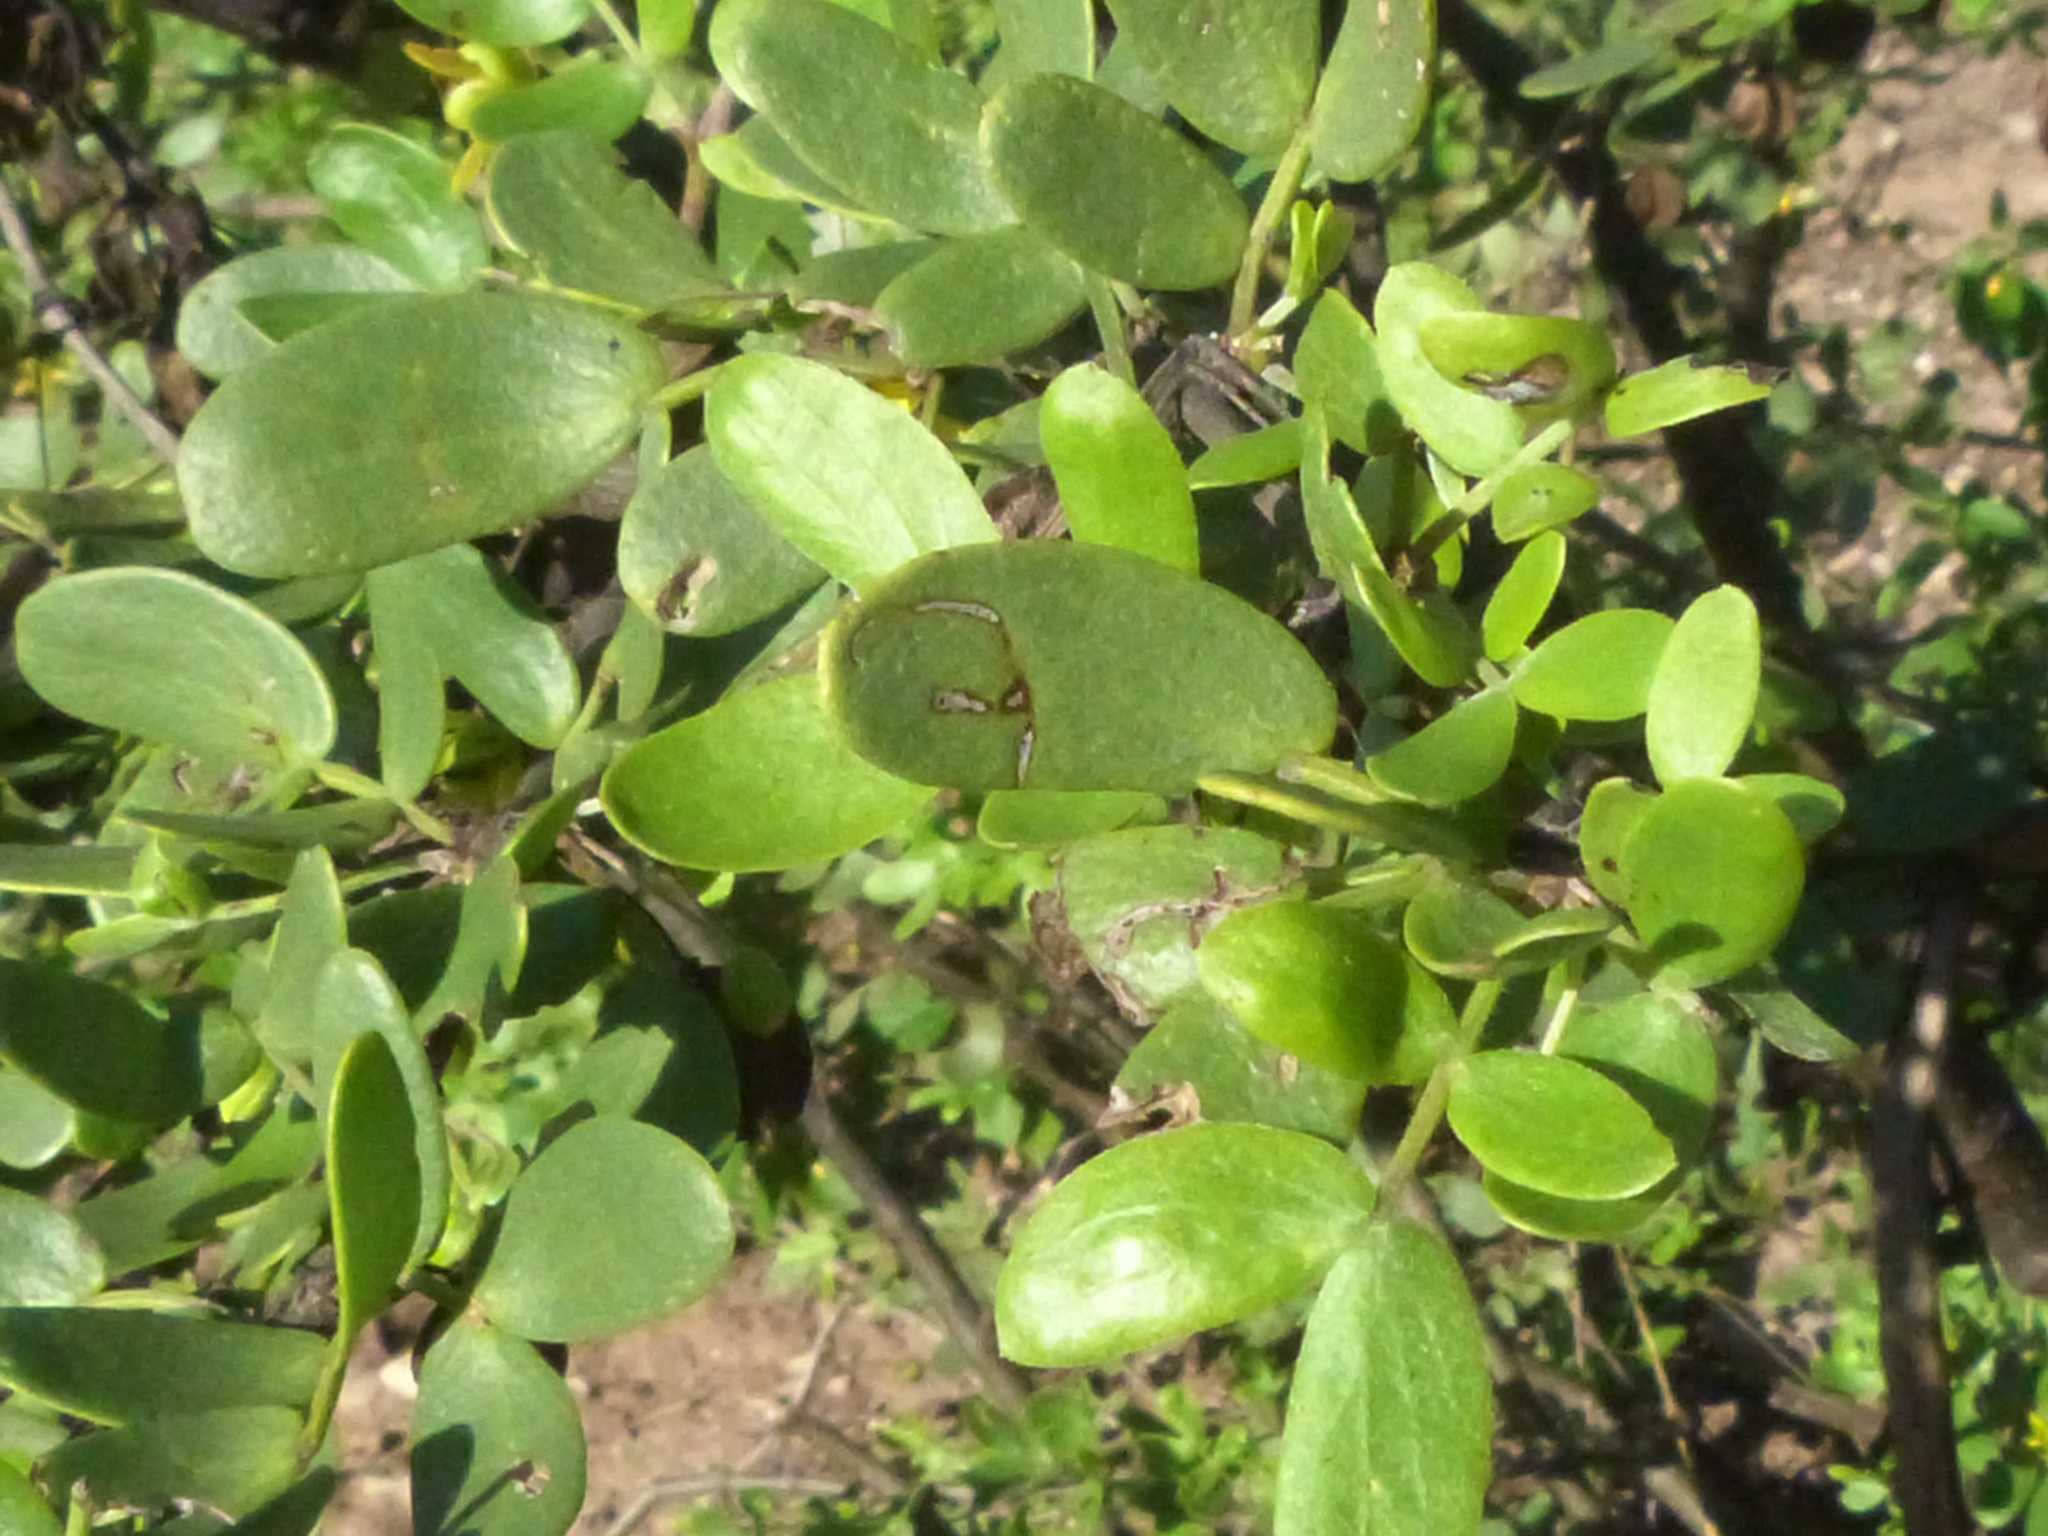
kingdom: Plantae
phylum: Tracheophyta
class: Magnoliopsida
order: Zygophyllales
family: Zygophyllaceae
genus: Bulnesia
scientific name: Bulnesia foliosa
